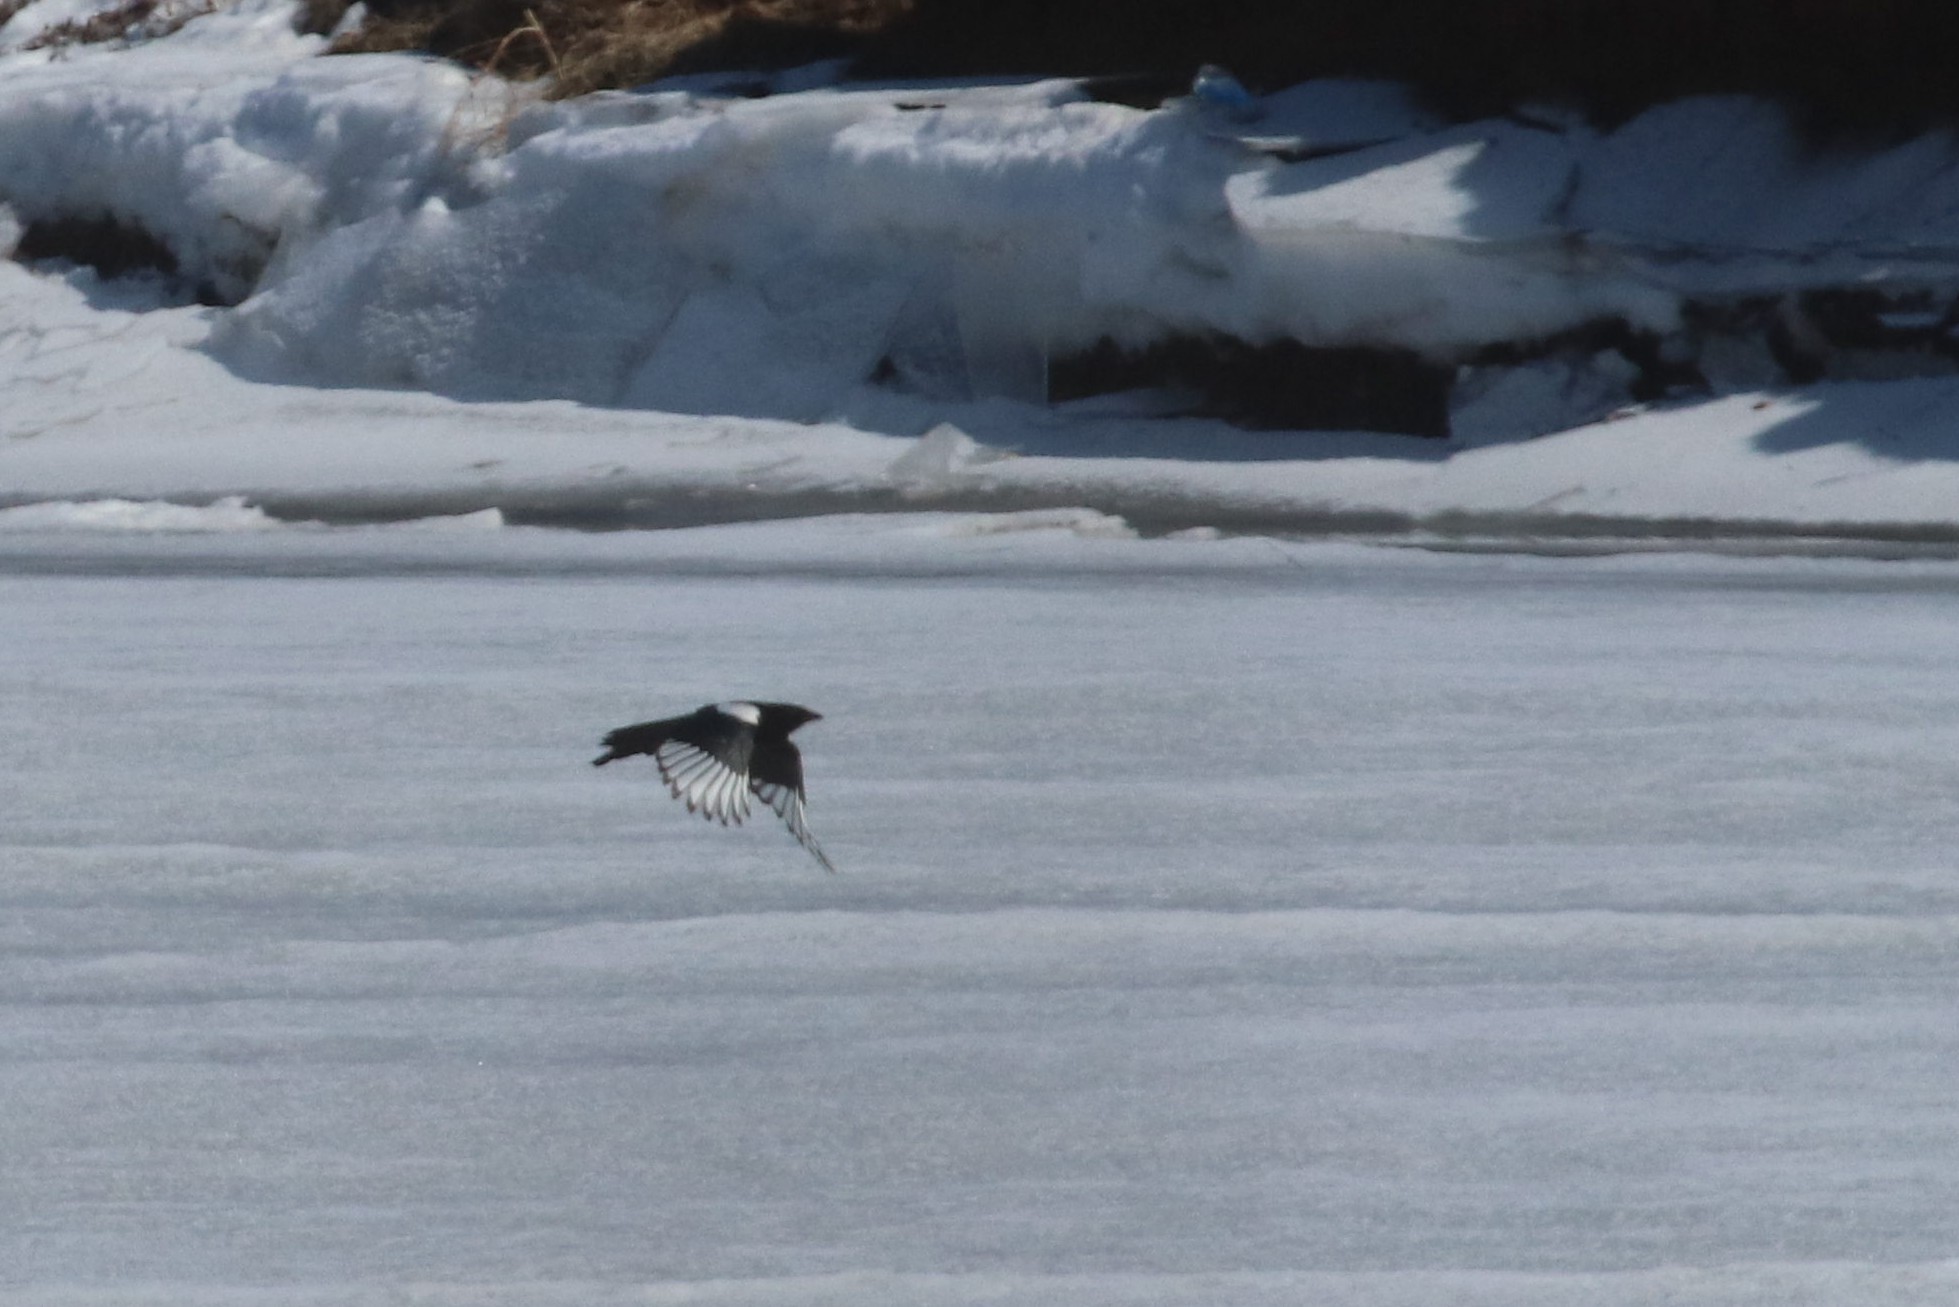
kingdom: Animalia
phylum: Chordata
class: Aves
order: Passeriformes
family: Corvidae
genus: Pica
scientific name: Pica pica
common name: Eurasian magpie
